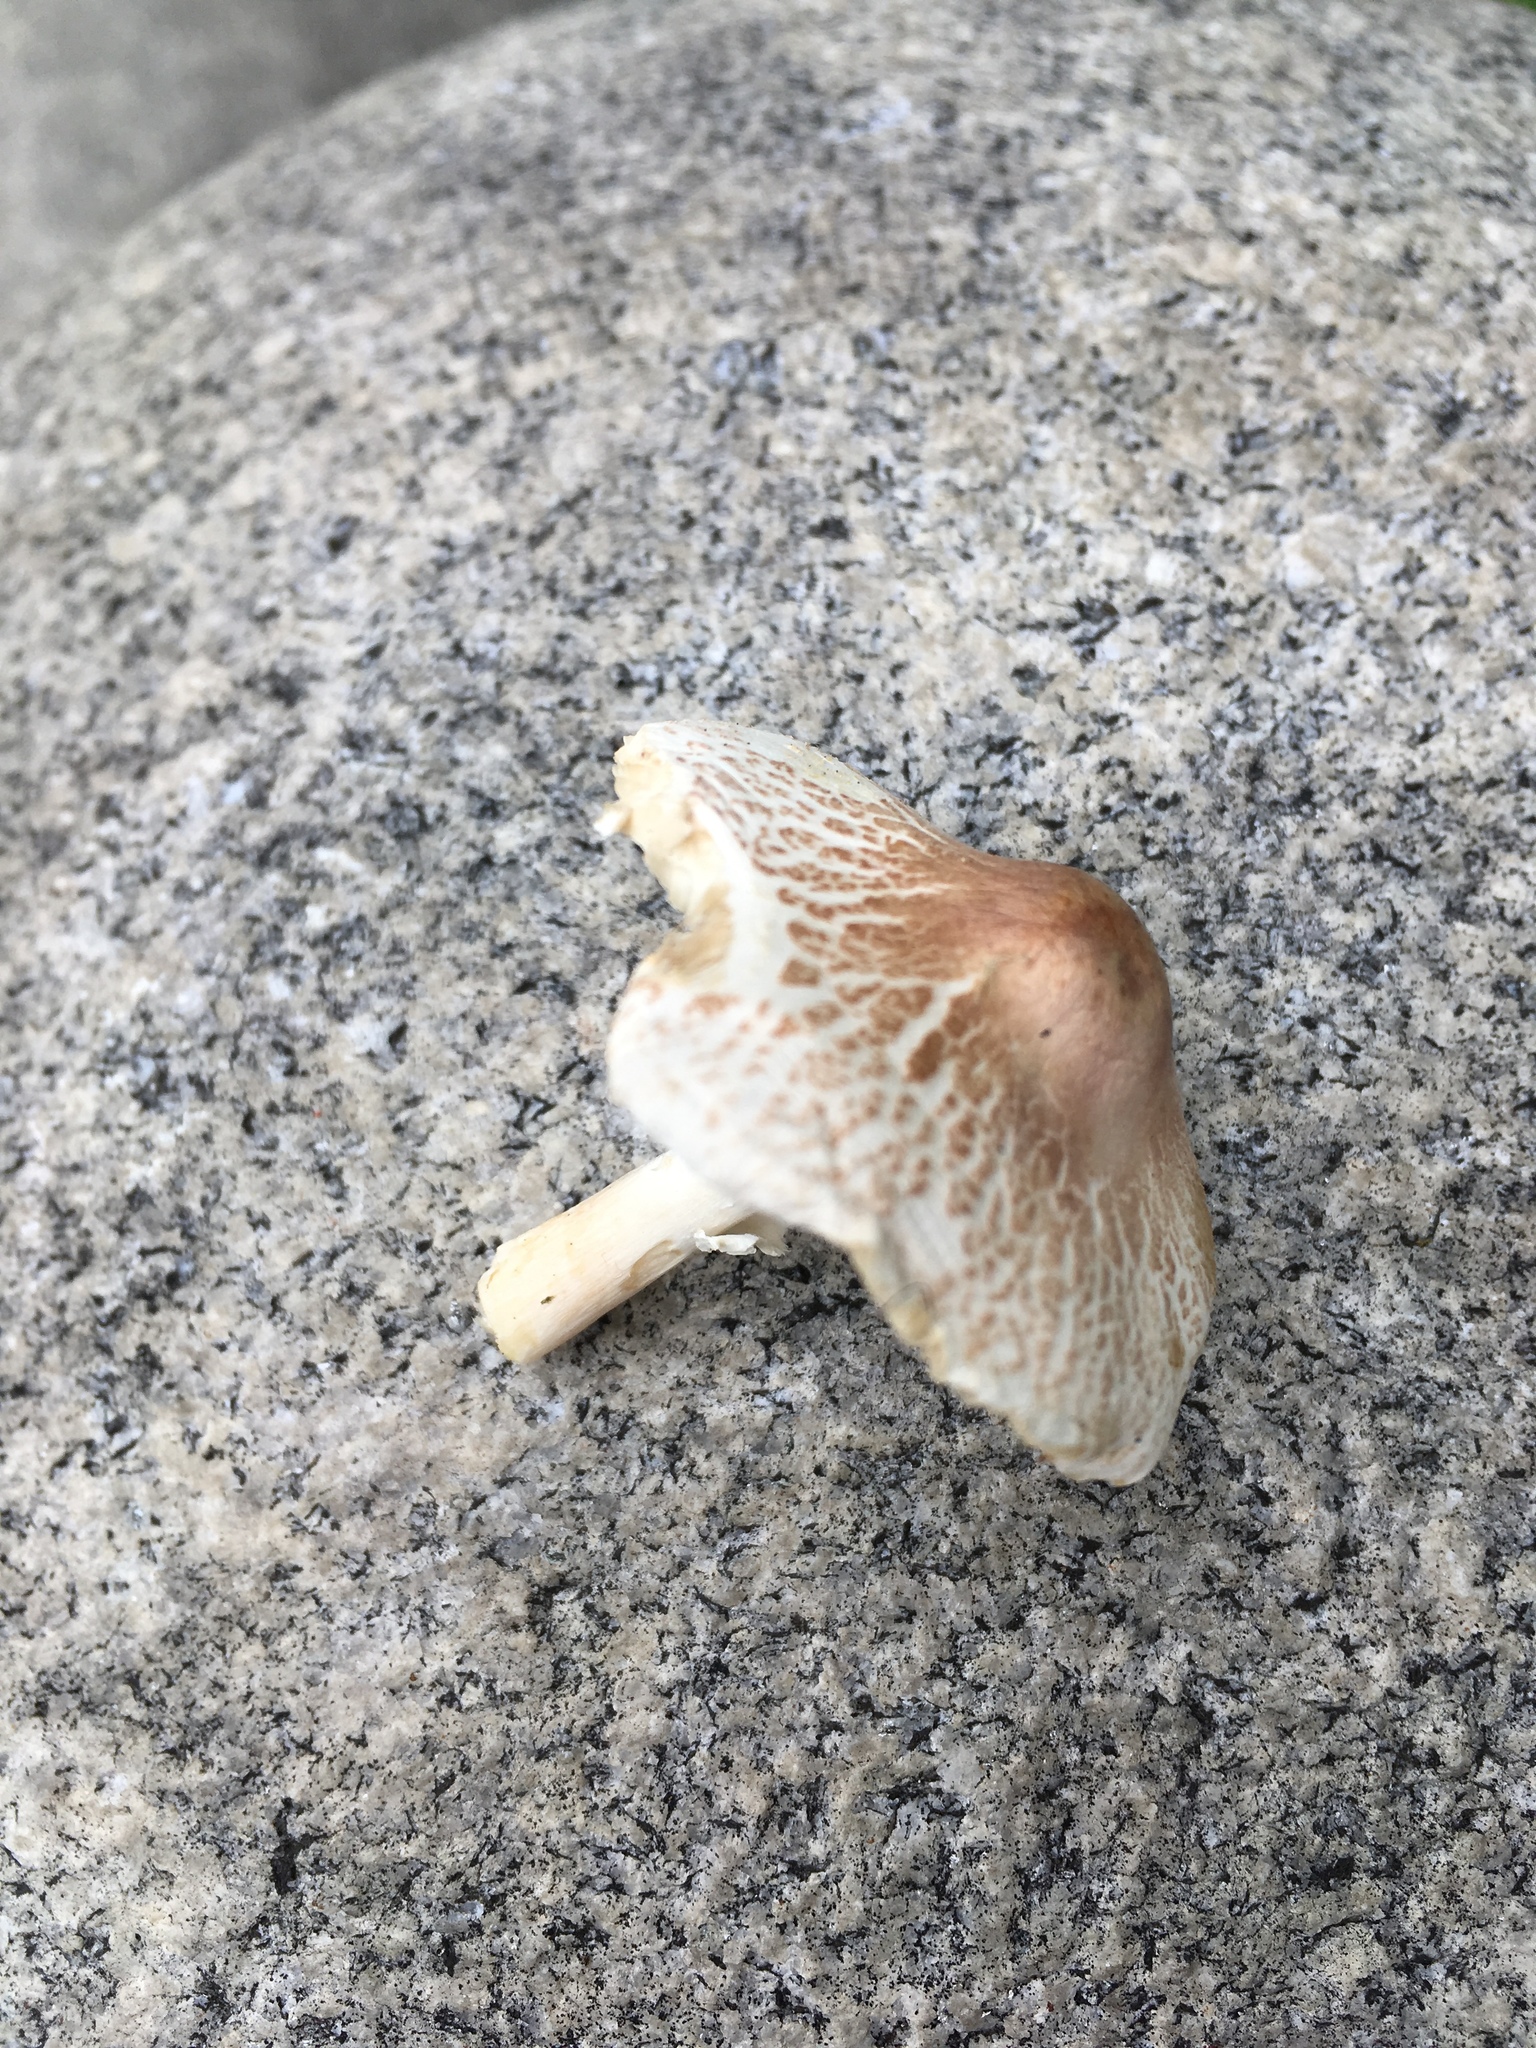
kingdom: Fungi
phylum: Basidiomycota
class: Agaricomycetes
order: Agaricales
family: Agaricaceae
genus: Lepiota
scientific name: Lepiota cristata
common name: Stinking dapperling
